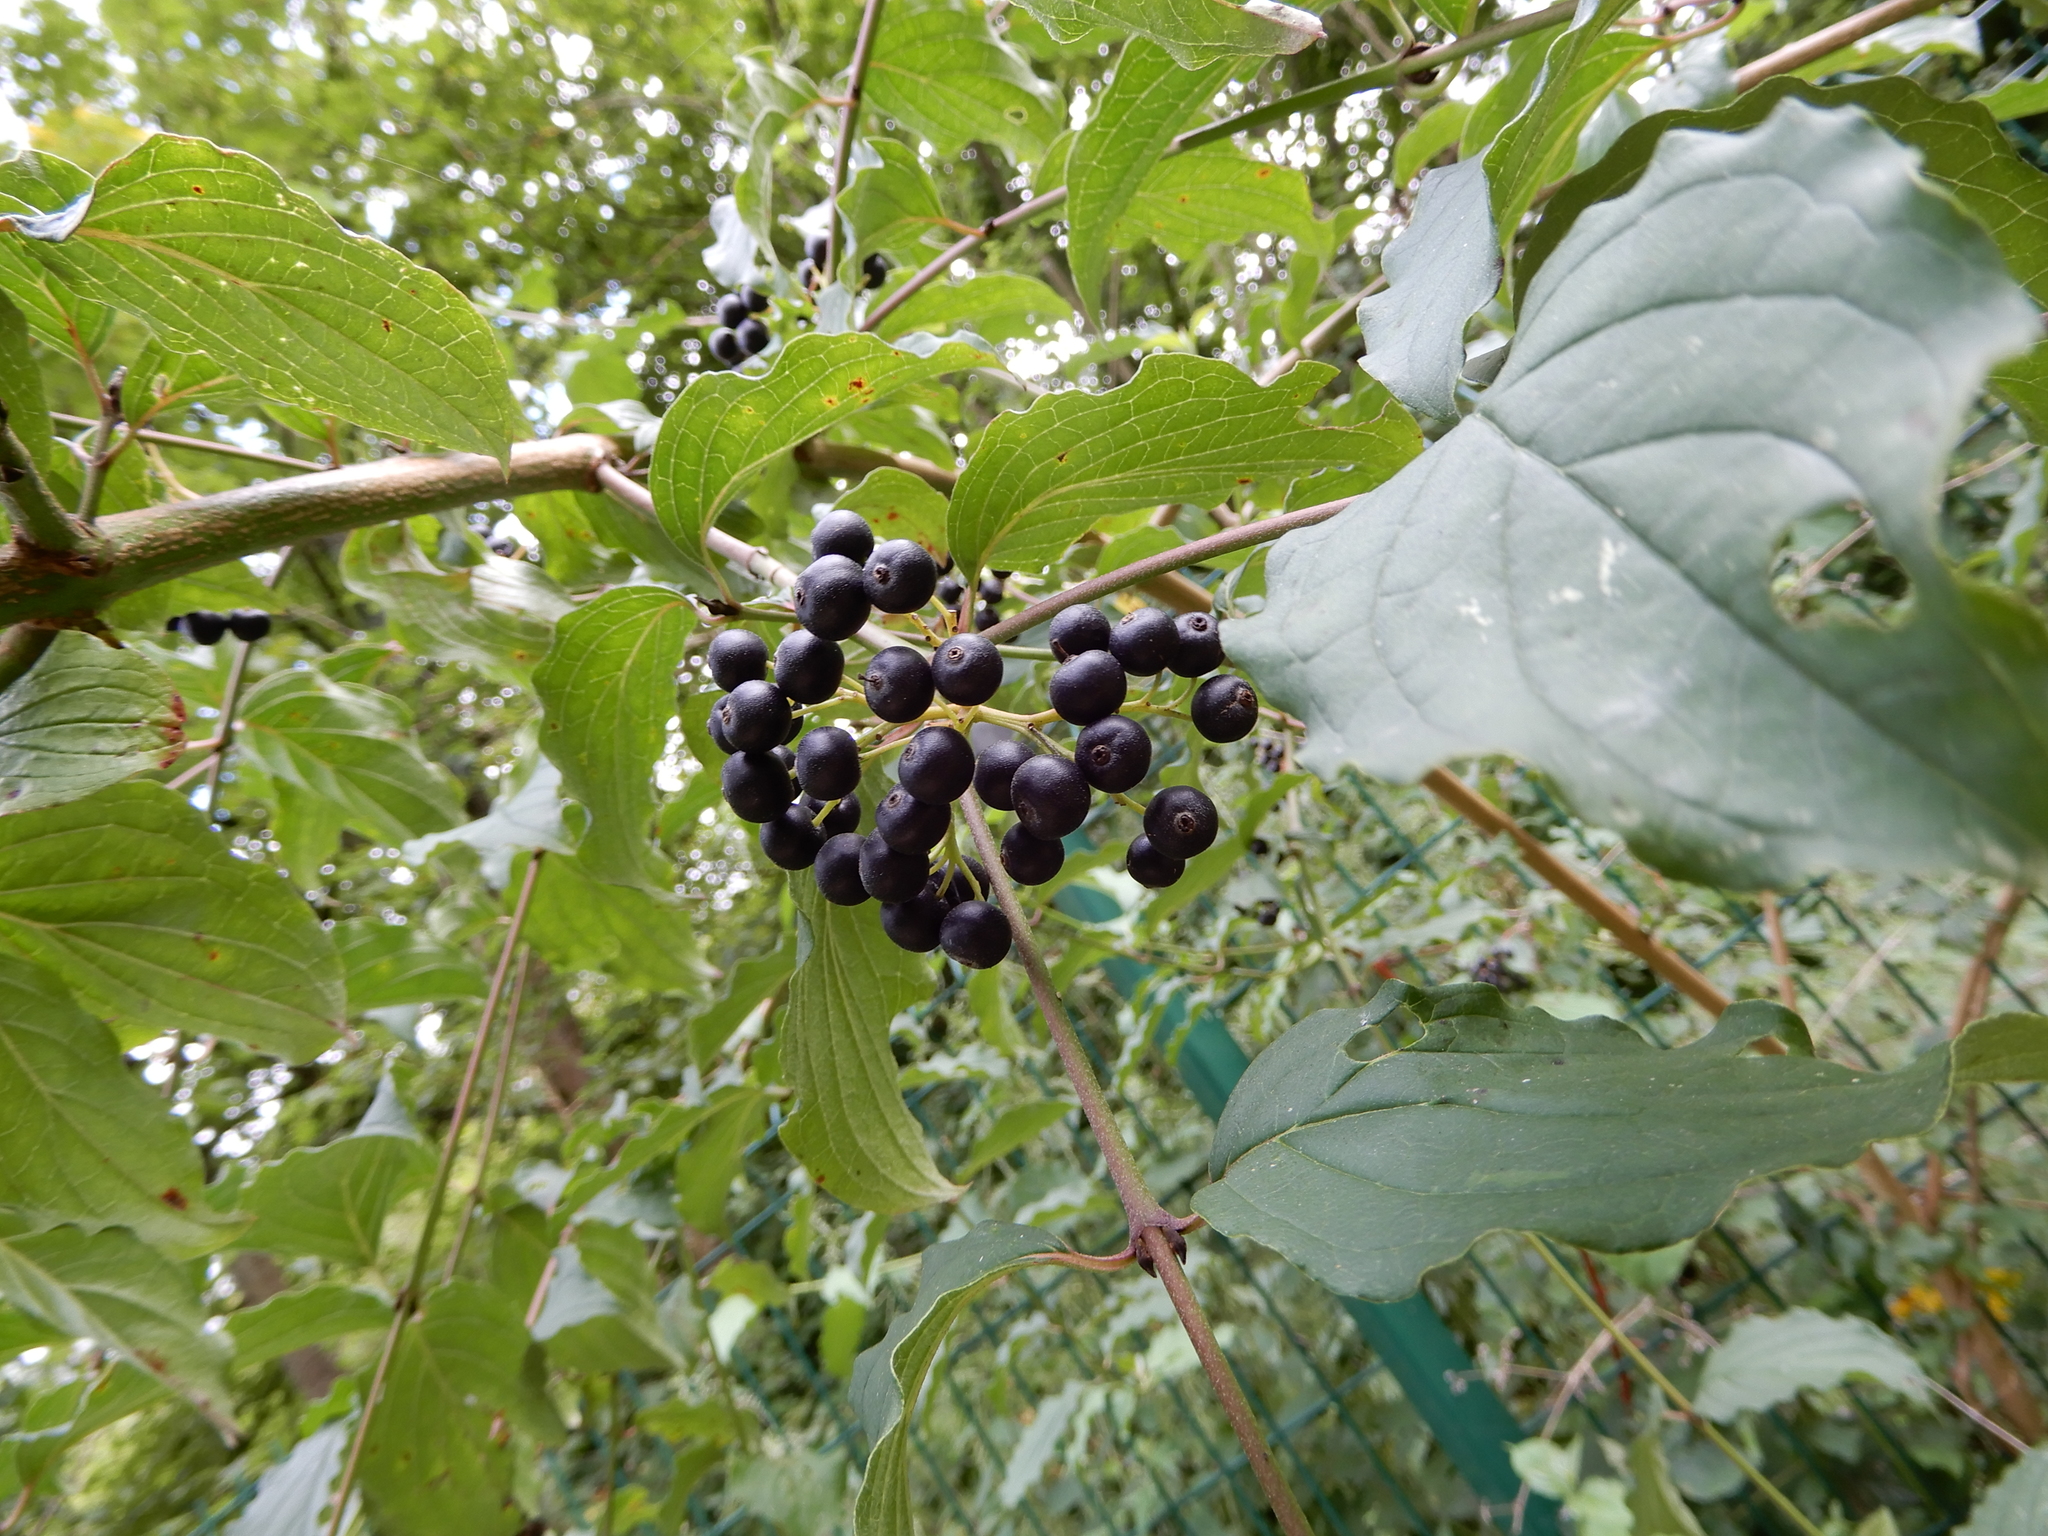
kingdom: Plantae
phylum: Tracheophyta
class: Magnoliopsida
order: Cornales
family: Cornaceae
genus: Cornus
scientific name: Cornus sanguinea
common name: Dogwood
